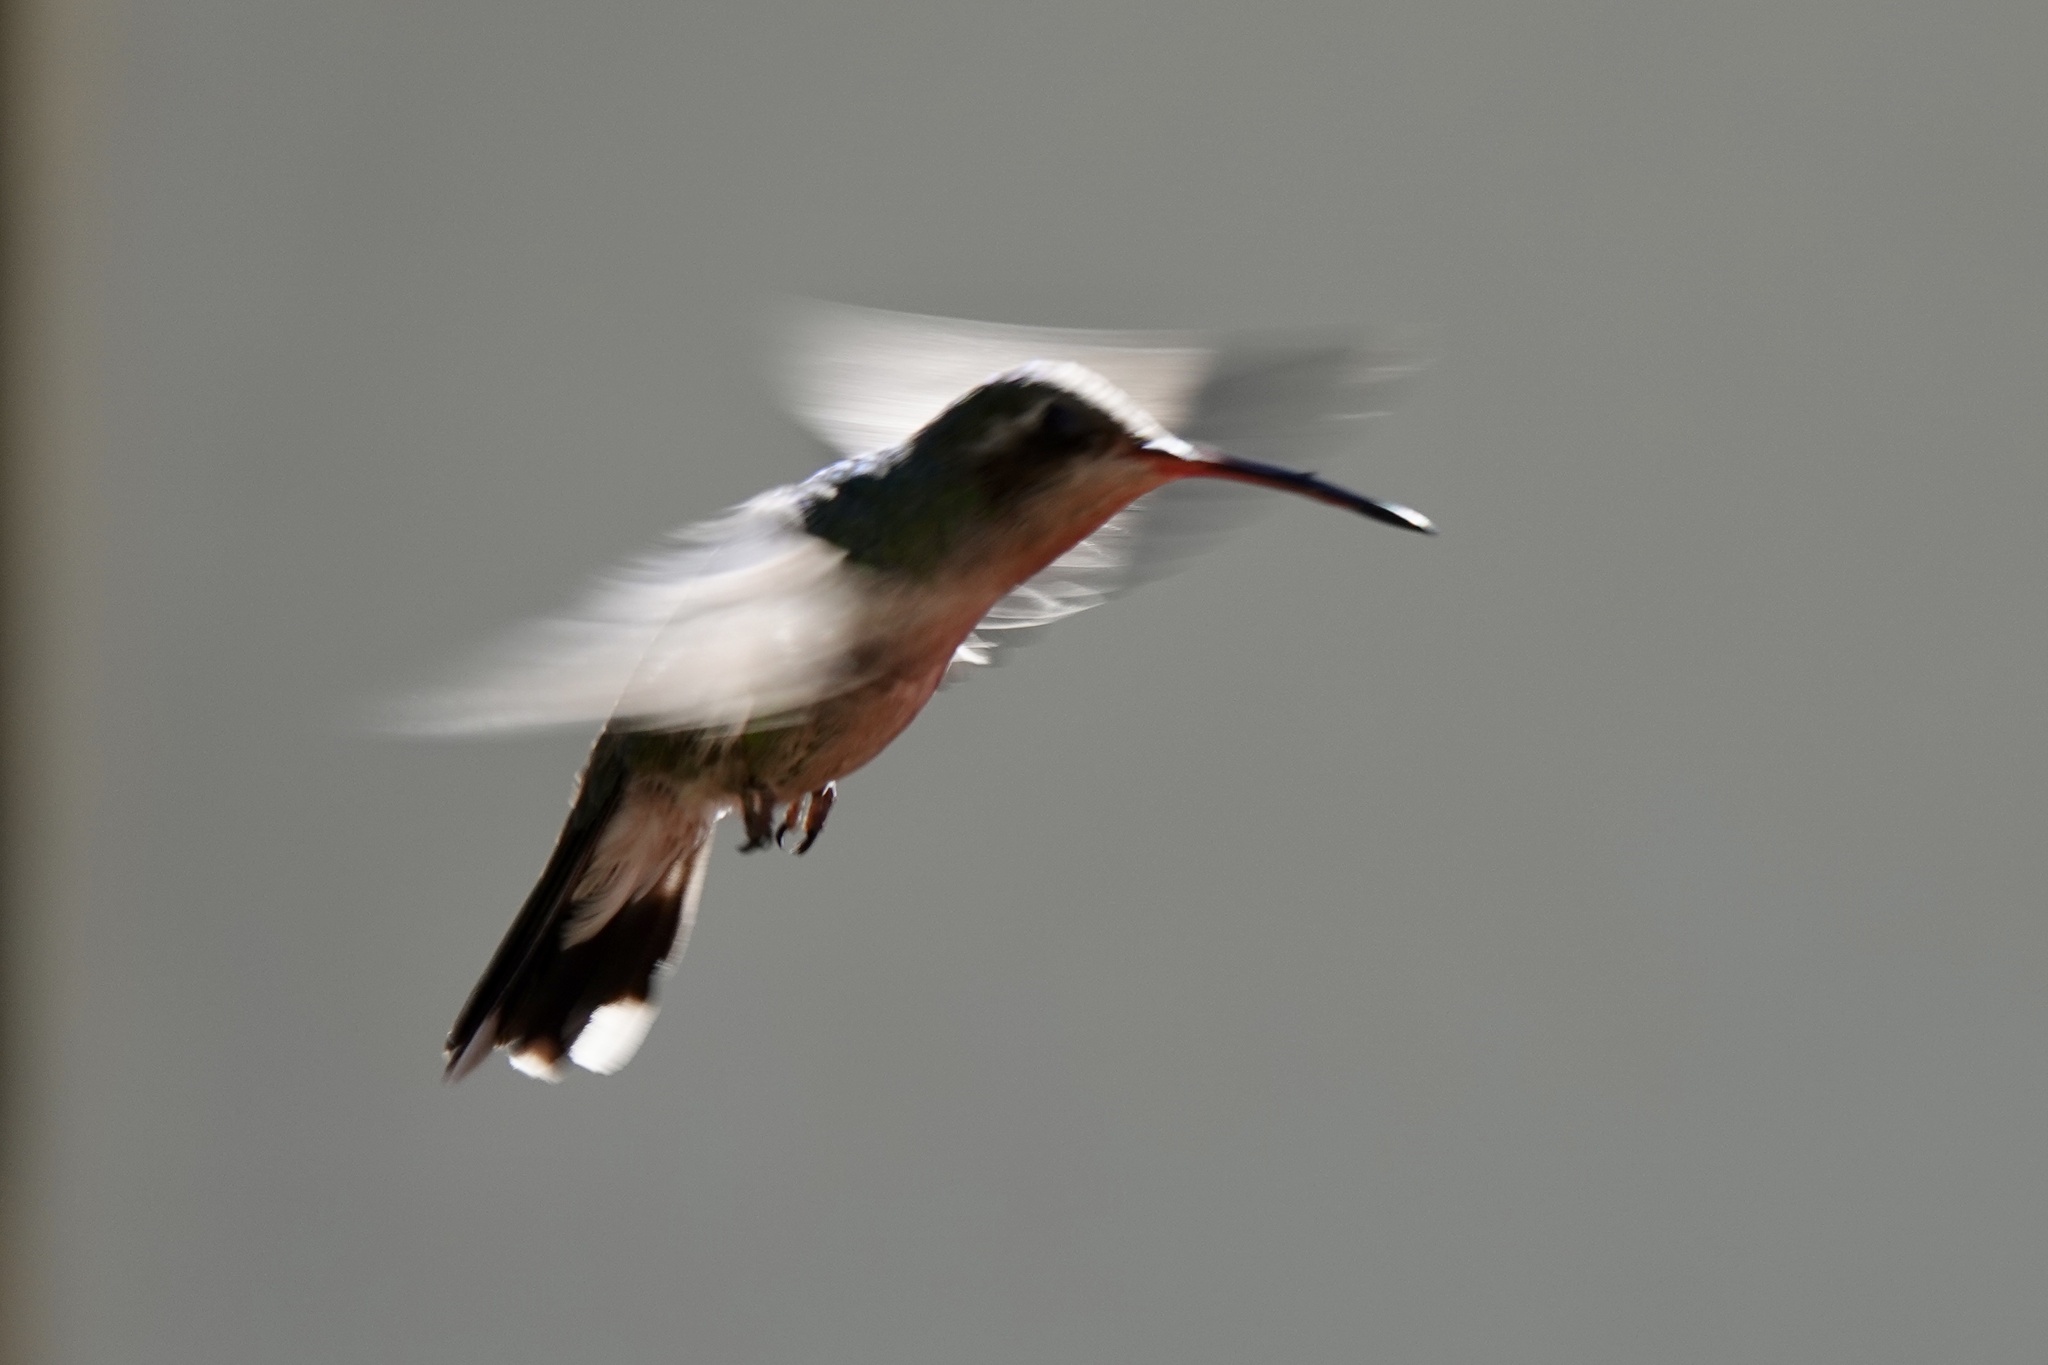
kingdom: Animalia
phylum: Chordata
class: Aves
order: Apodiformes
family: Trochilidae
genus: Cynanthus
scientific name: Cynanthus latirostris
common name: Broad-billed hummingbird
